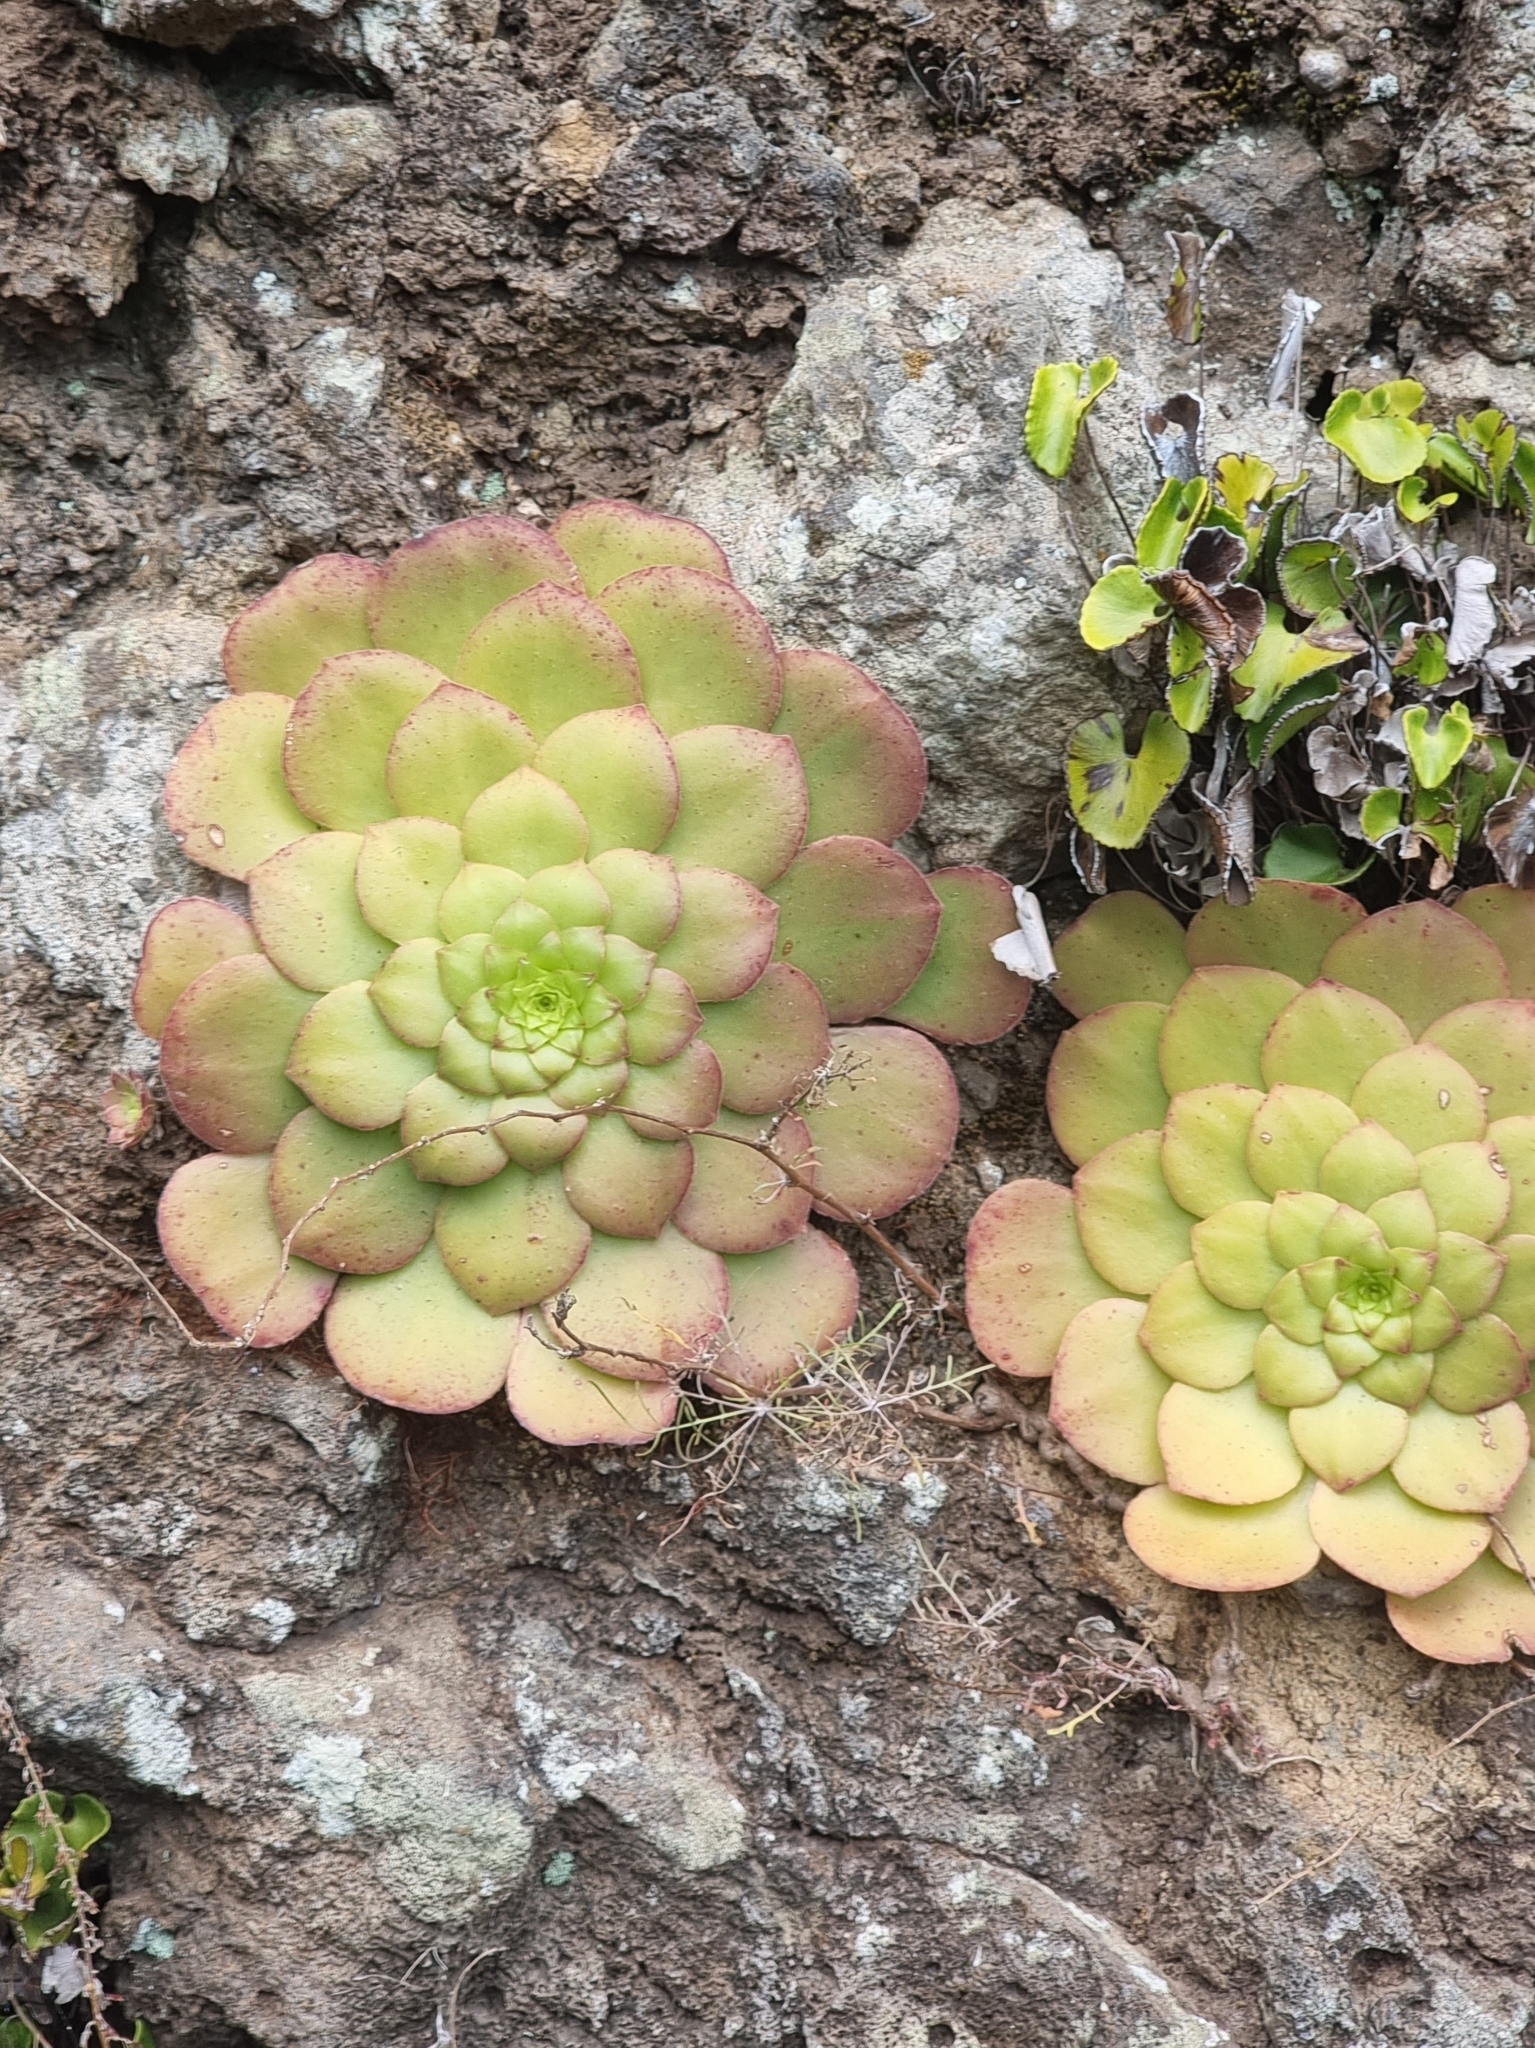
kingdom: Plantae
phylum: Tracheophyta
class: Magnoliopsida
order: Saxifragales
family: Crassulaceae
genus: Aeonium
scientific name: Aeonium glandulosum
